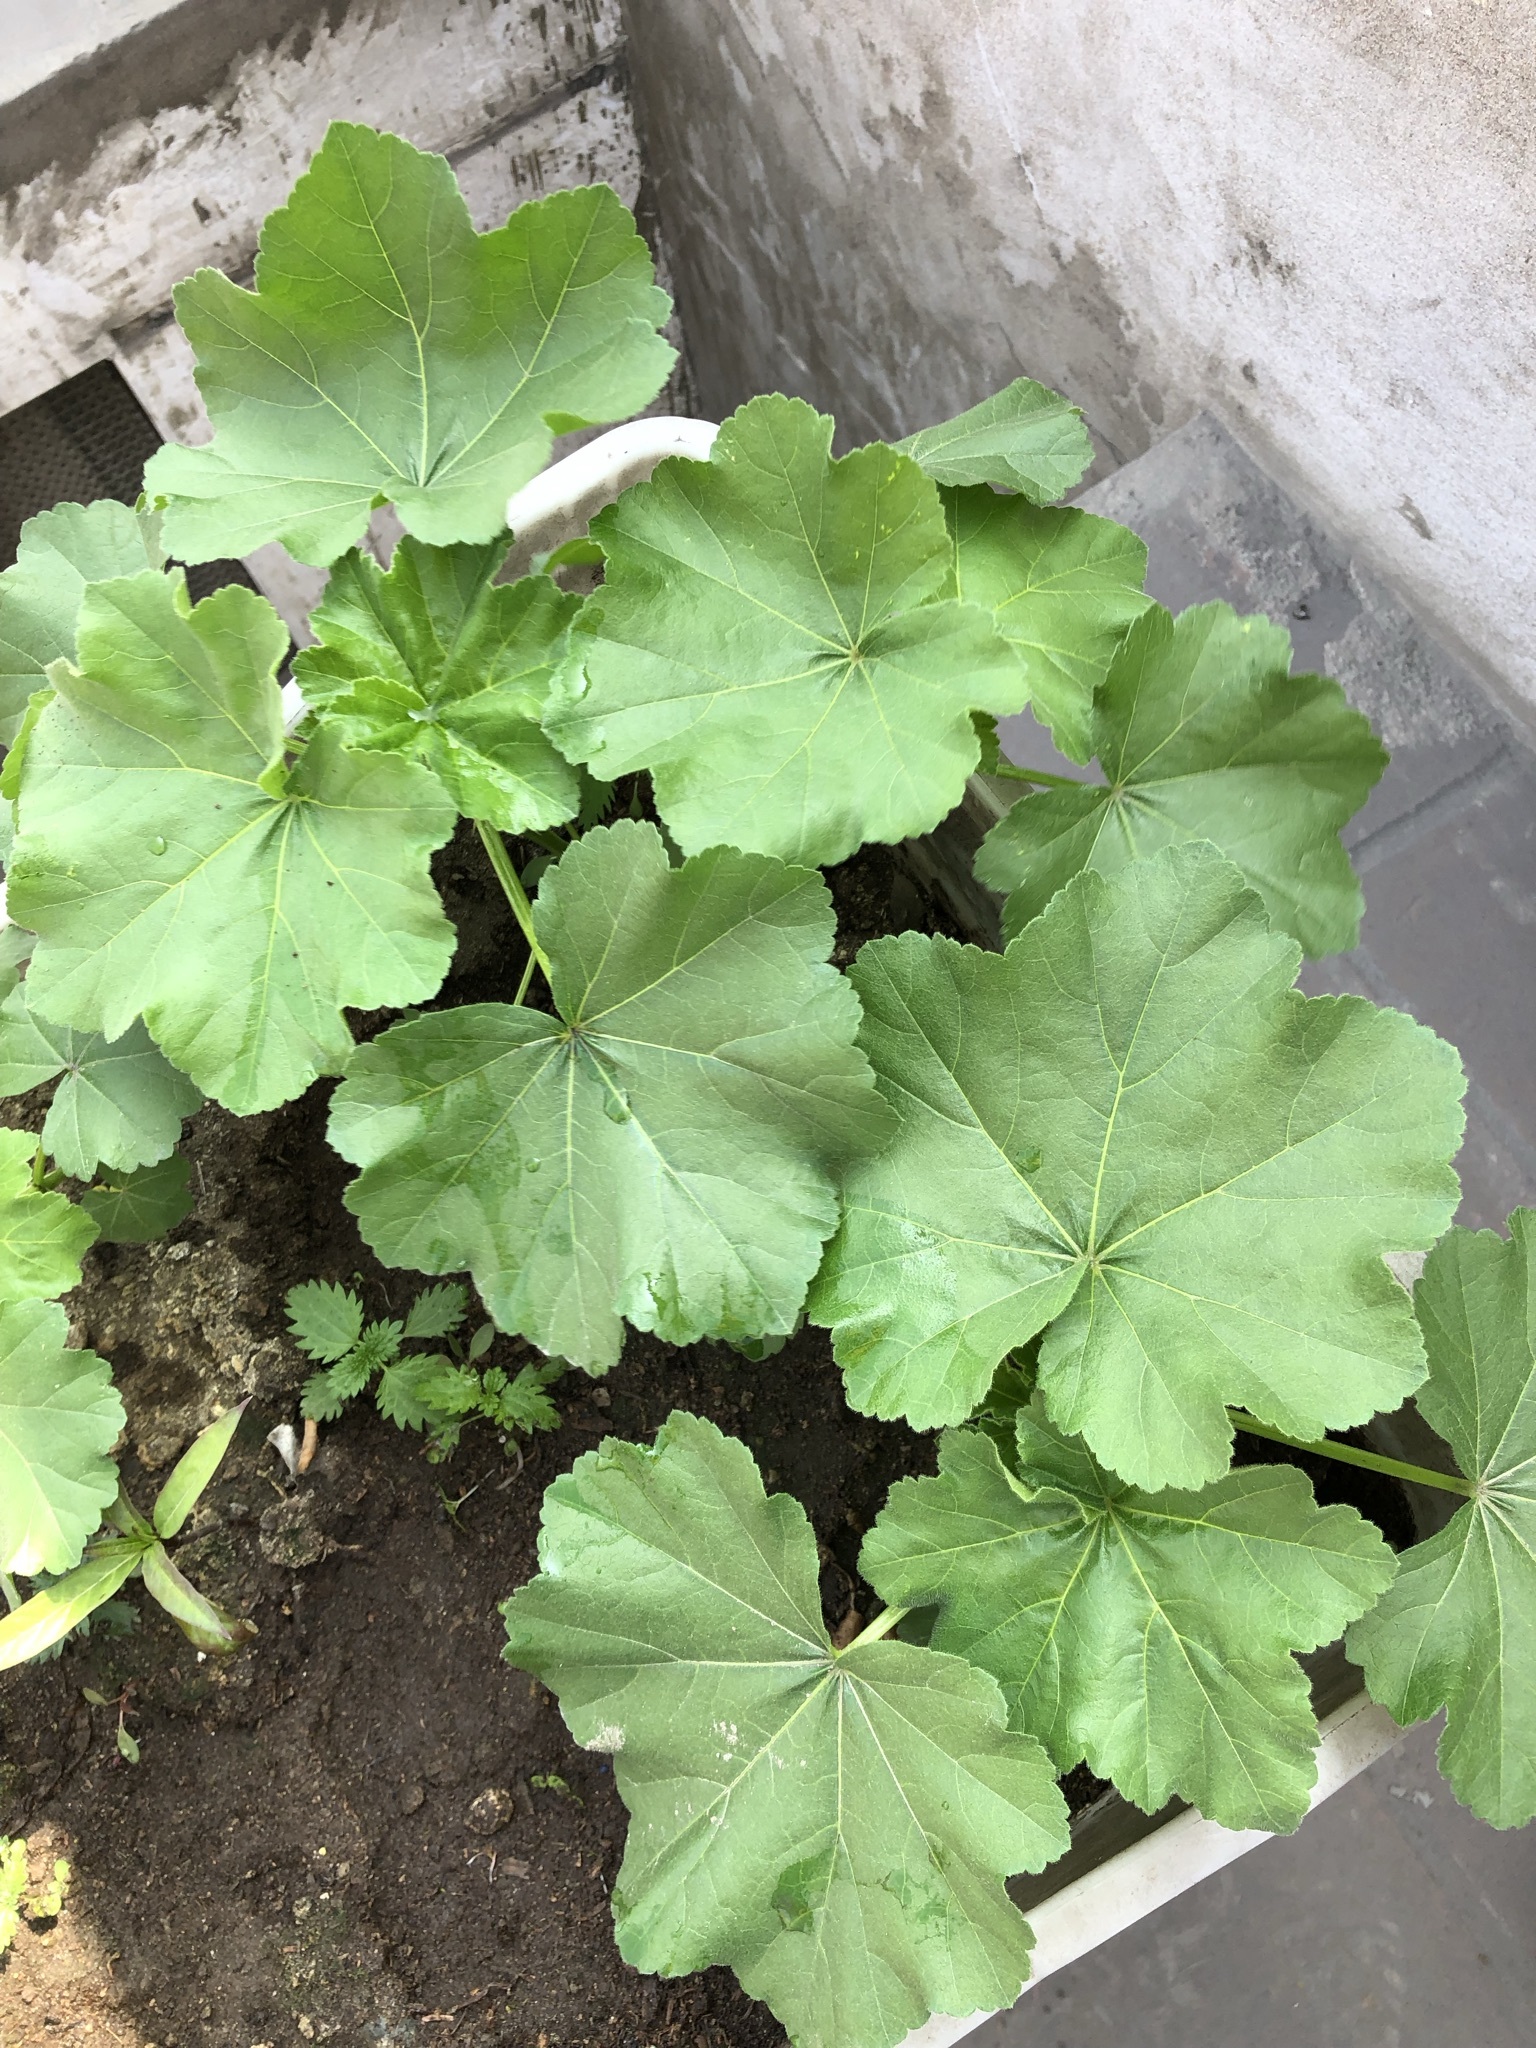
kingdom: Plantae
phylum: Tracheophyta
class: Magnoliopsida
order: Malvales
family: Malvaceae
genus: Malva
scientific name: Malva arborea
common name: Tree mallow
